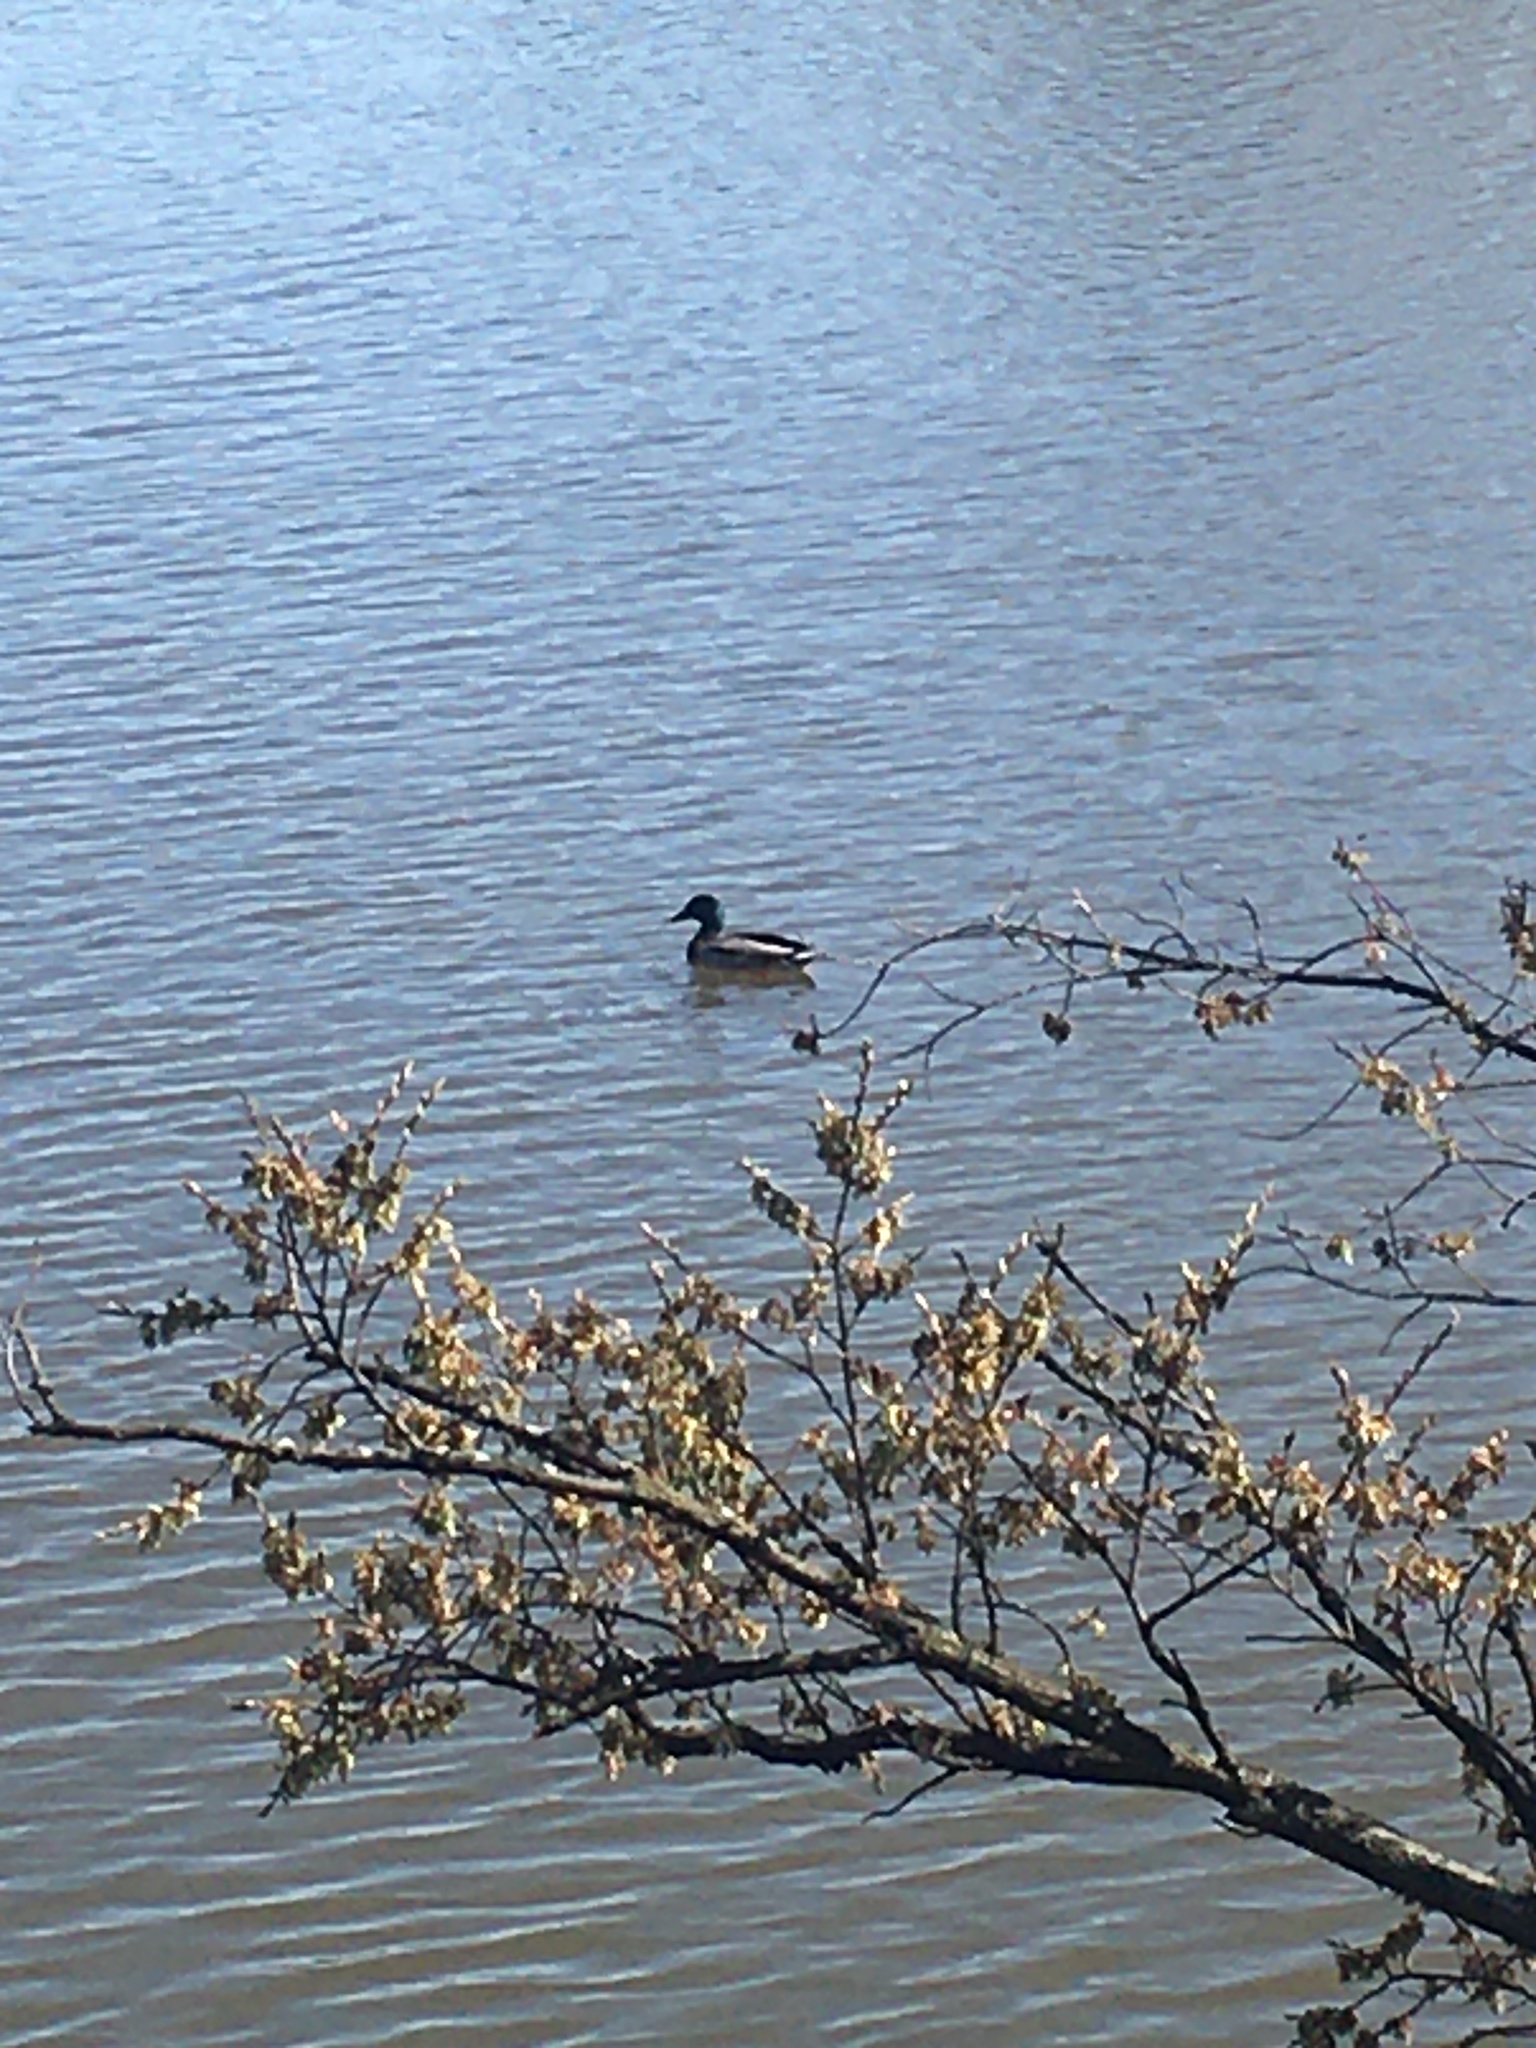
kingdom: Animalia
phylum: Chordata
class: Aves
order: Anseriformes
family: Anatidae
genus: Anas
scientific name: Anas platyrhynchos
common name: Mallard
